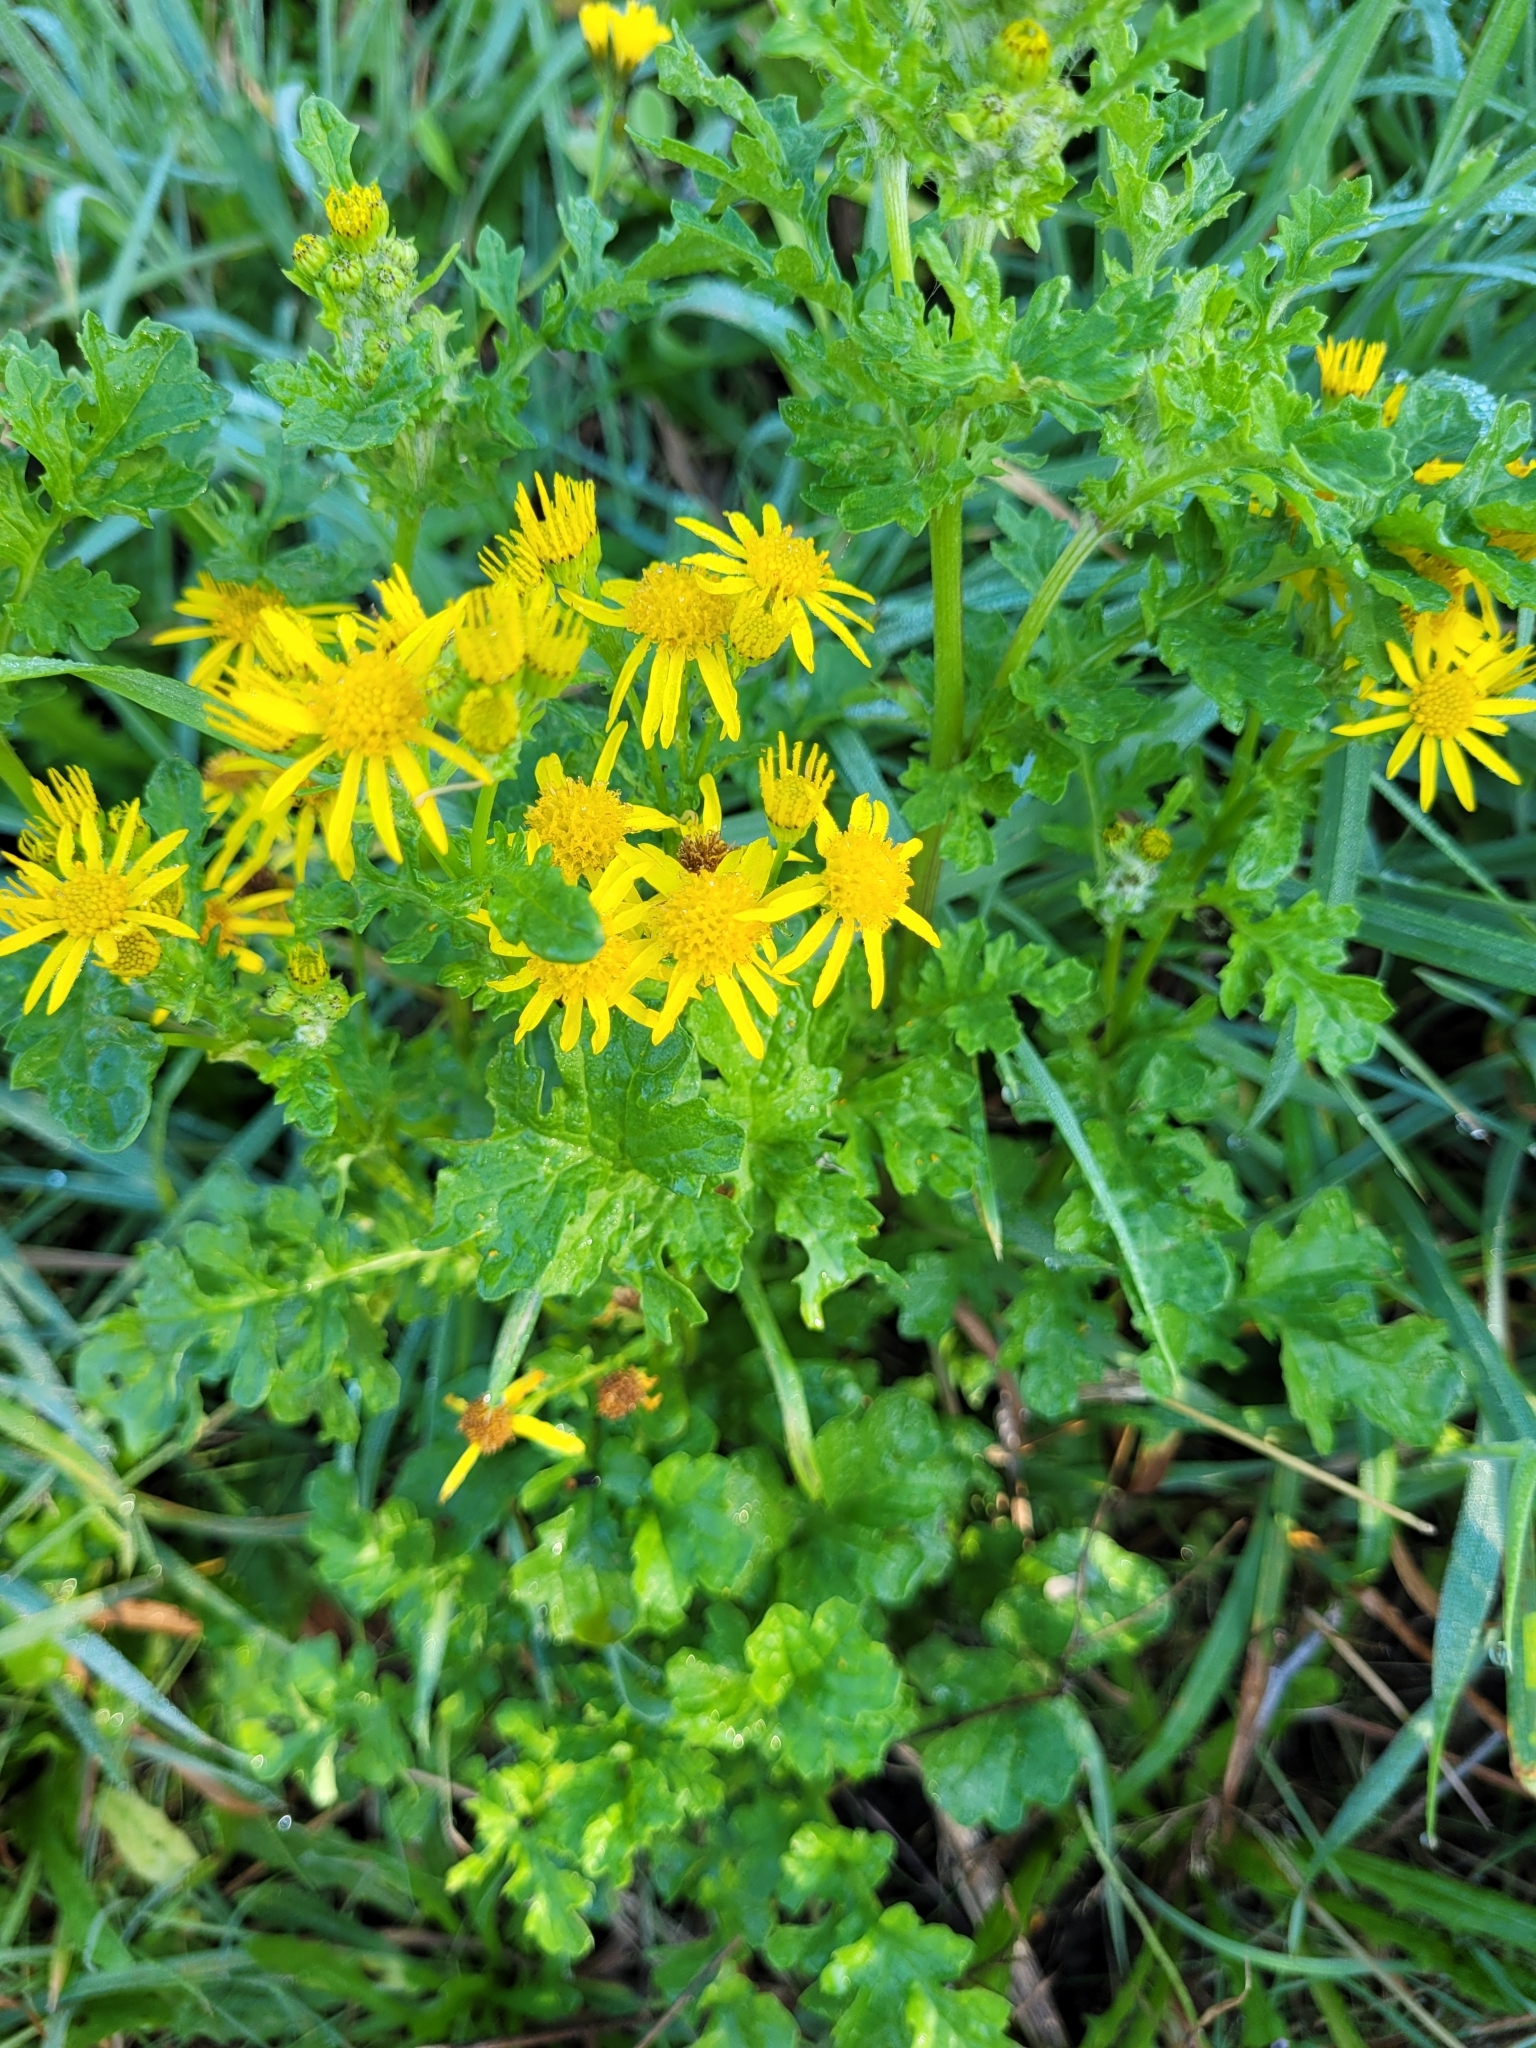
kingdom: Plantae
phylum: Tracheophyta
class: Magnoliopsida
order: Asterales
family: Asteraceae
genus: Jacobaea
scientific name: Jacobaea vulgaris
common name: Stinking willie
